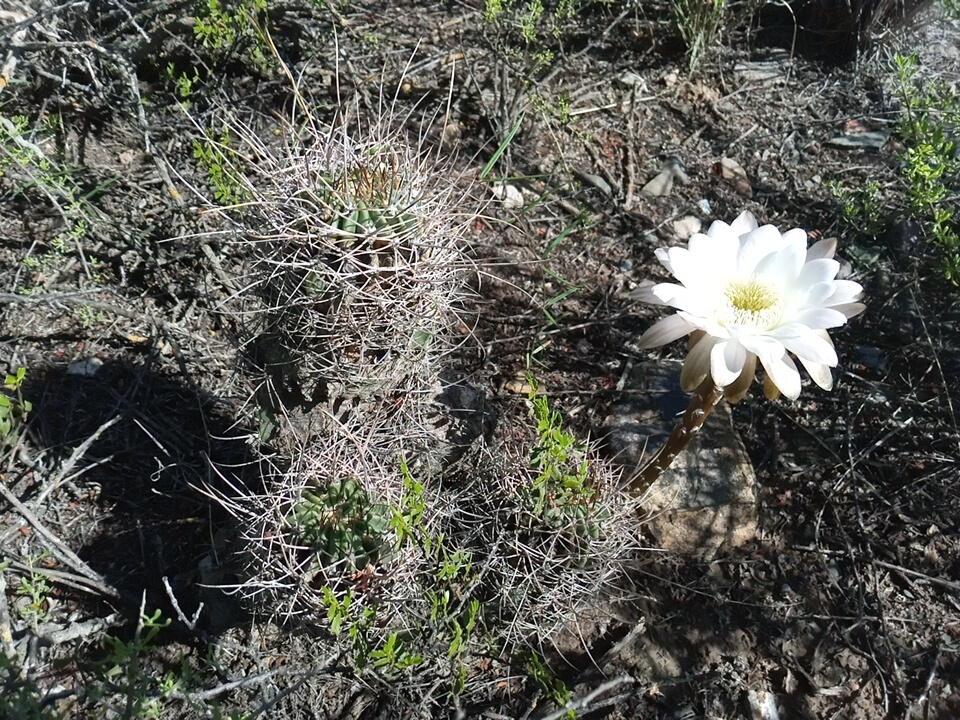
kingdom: Plantae
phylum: Tracheophyta
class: Magnoliopsida
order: Caryophyllales
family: Cactaceae
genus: Acanthocalycium
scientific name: Acanthocalycium leucanthum
